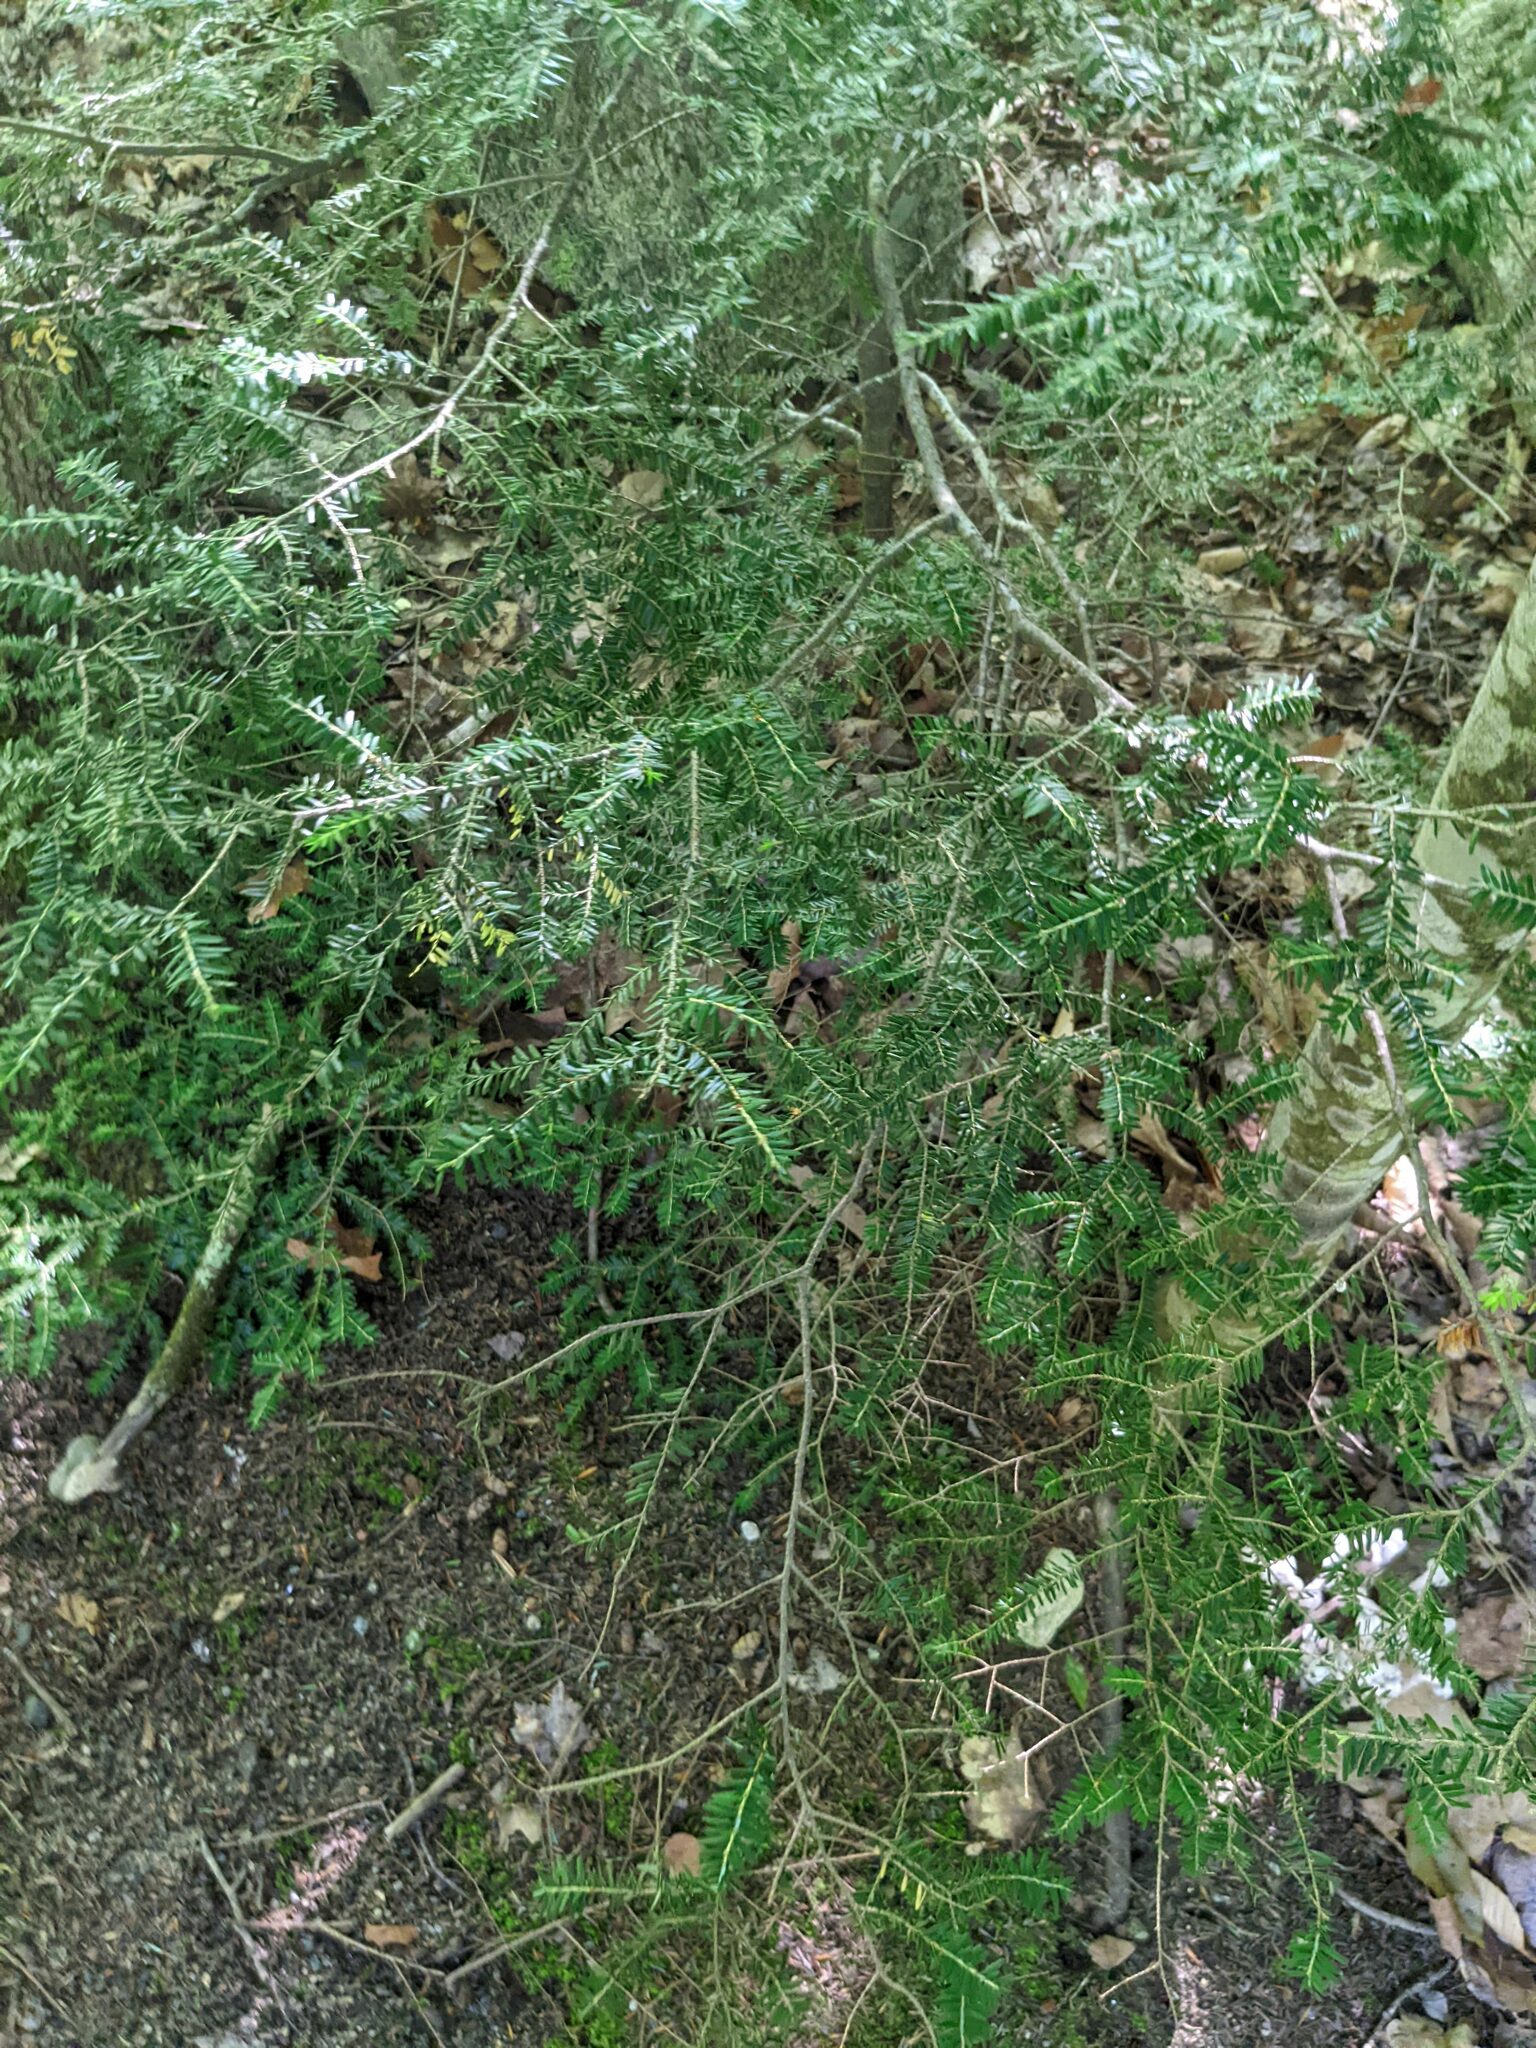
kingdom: Plantae
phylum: Tracheophyta
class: Pinopsida
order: Pinales
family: Pinaceae
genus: Tsuga
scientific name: Tsuga canadensis
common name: Eastern hemlock
